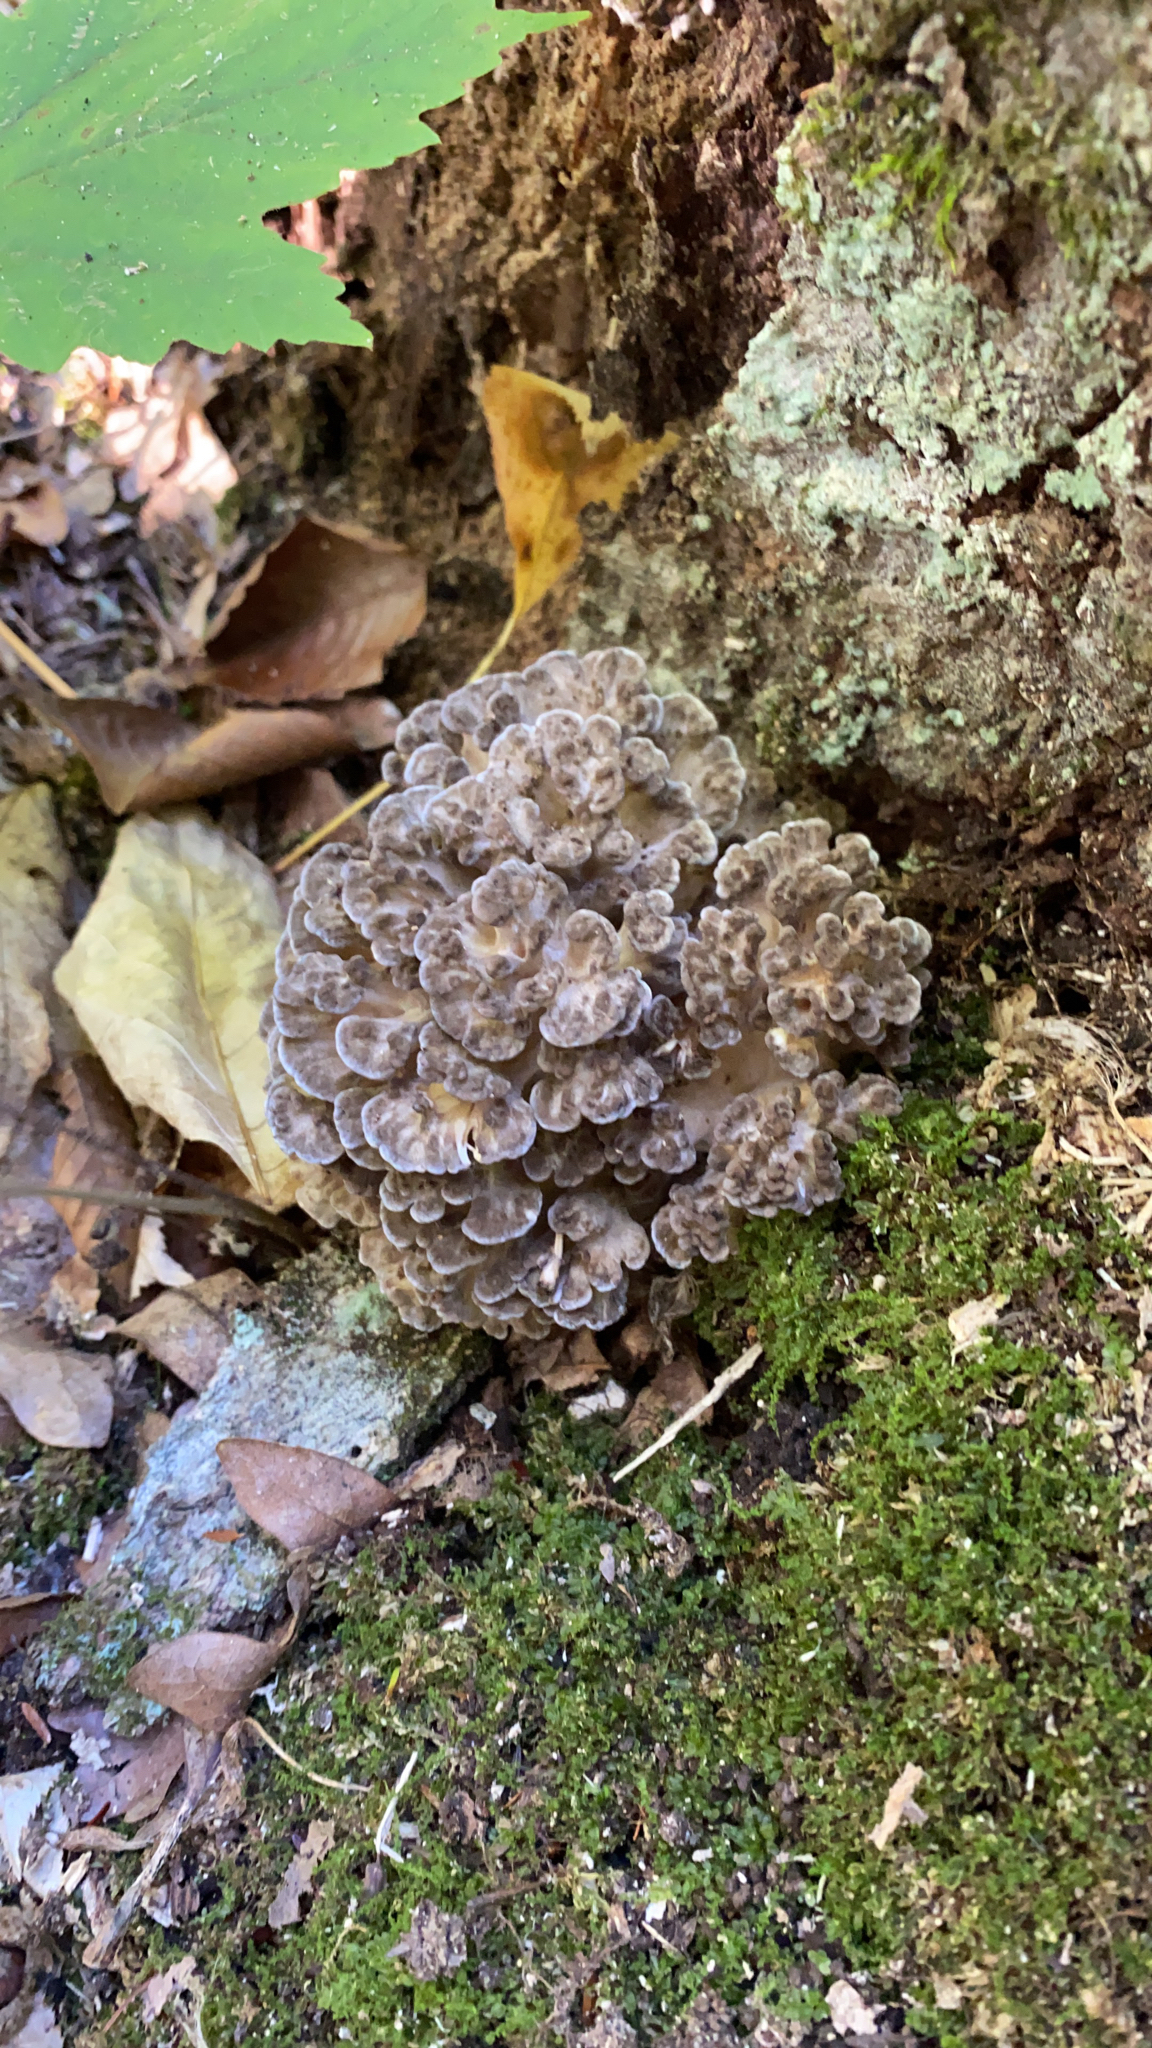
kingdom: Fungi
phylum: Basidiomycota
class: Agaricomycetes
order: Polyporales
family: Grifolaceae
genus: Grifola
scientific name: Grifola frondosa
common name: Hen of the woods
